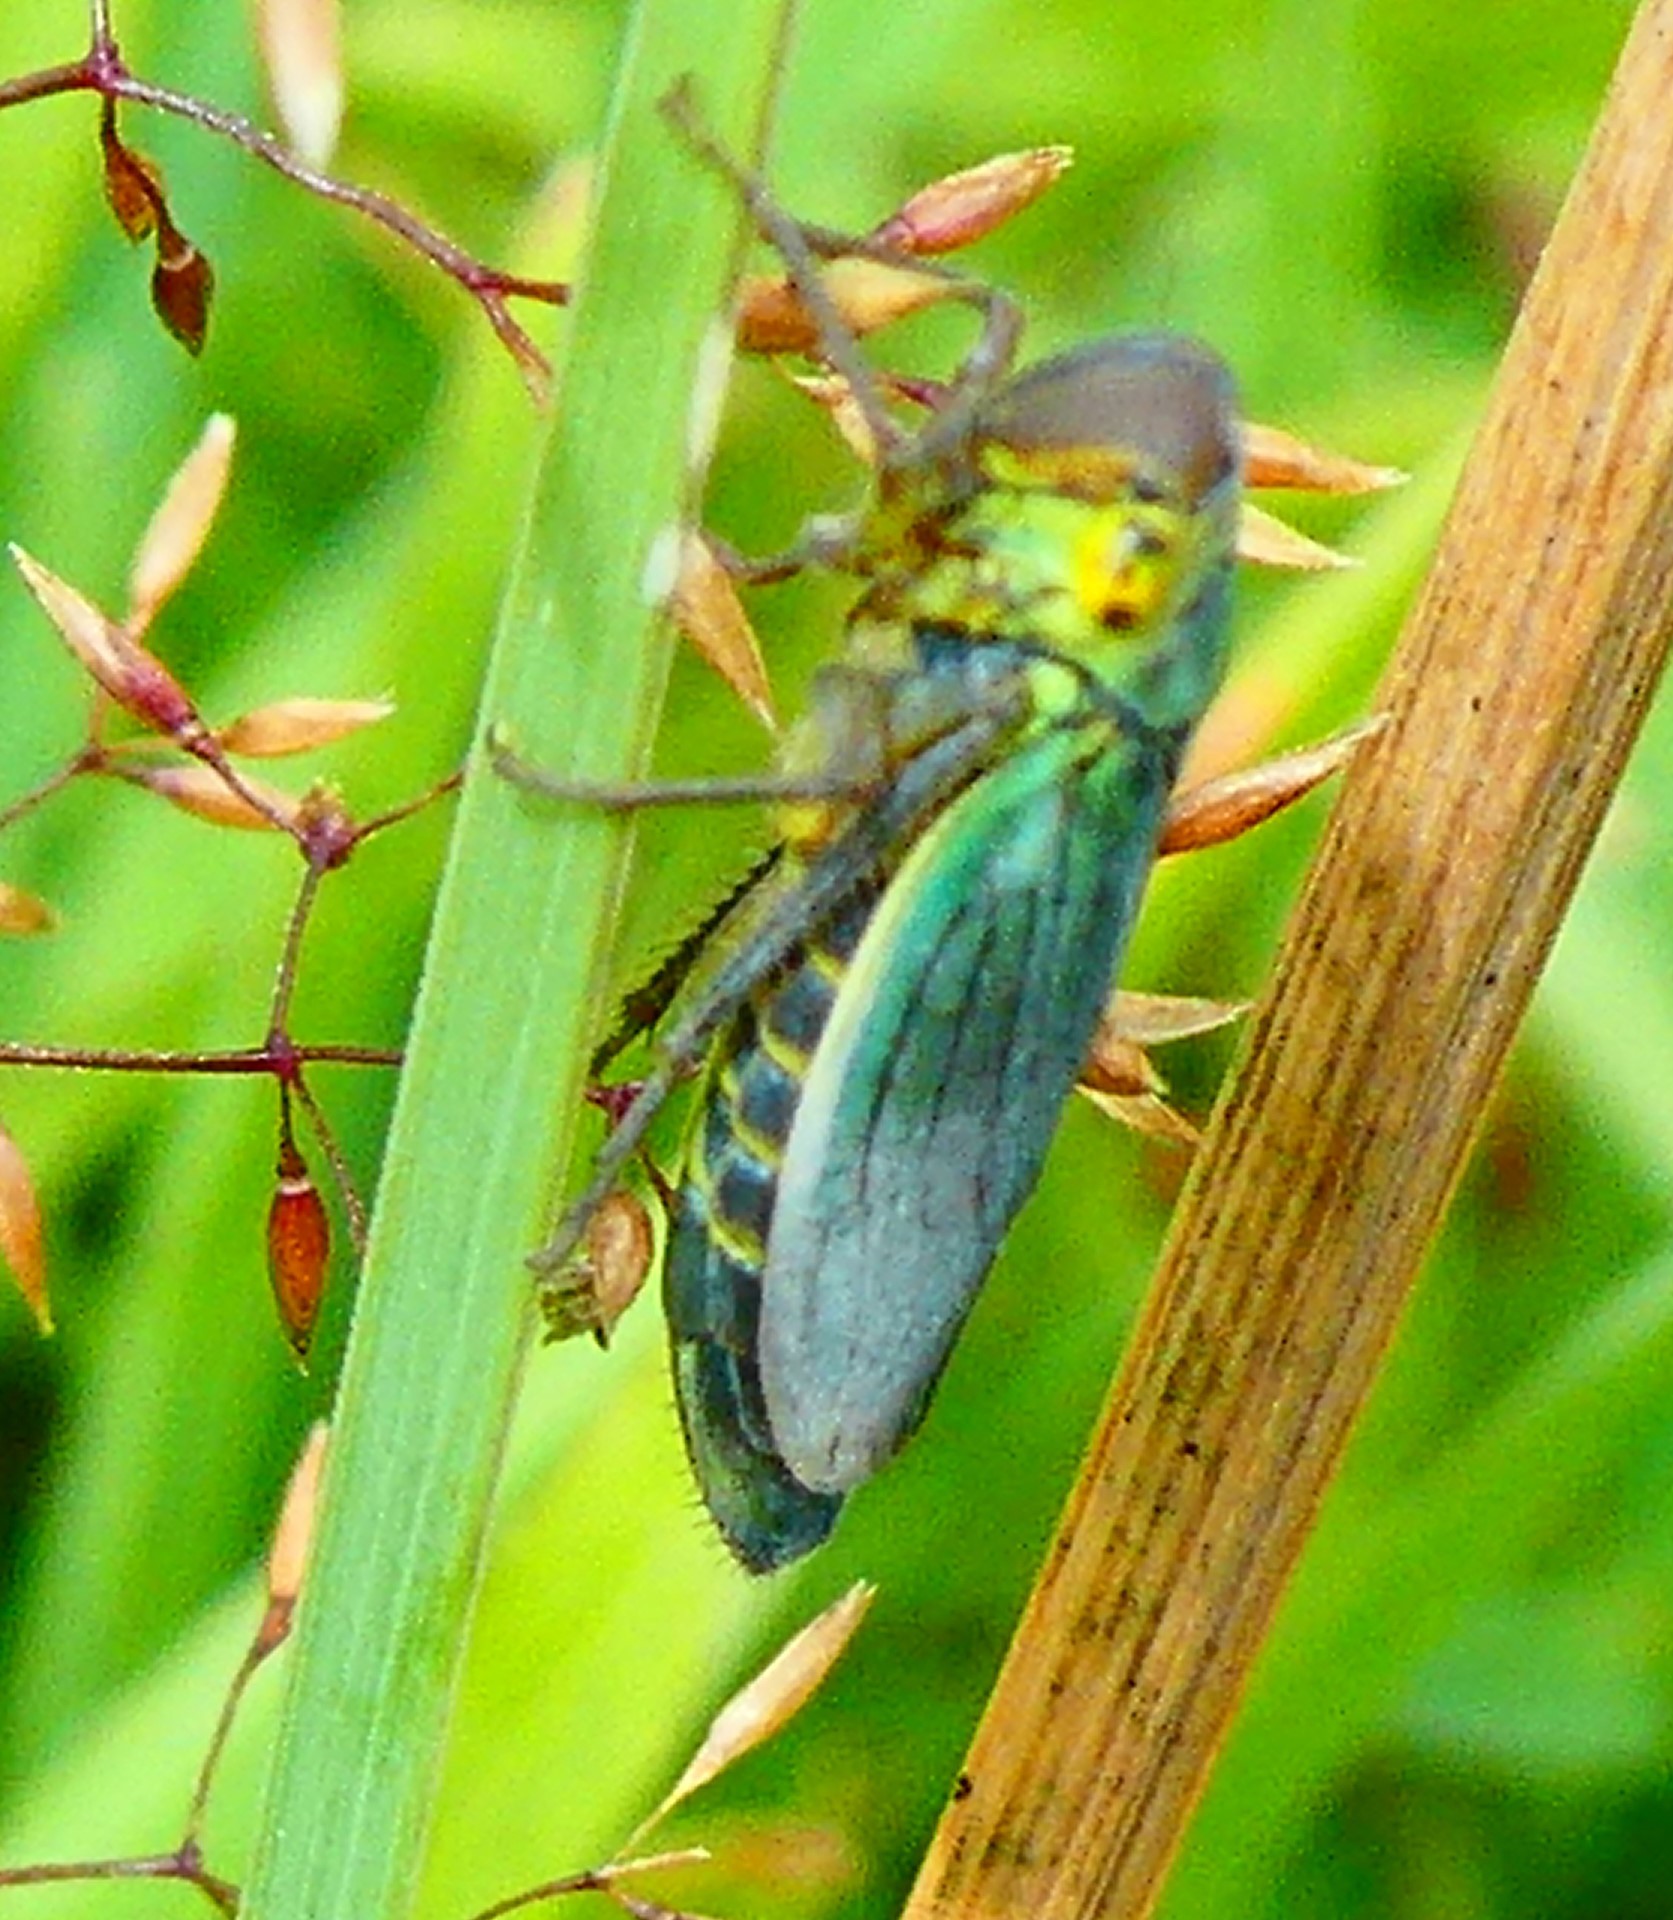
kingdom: Animalia
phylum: Arthropoda
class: Insecta
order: Hemiptera
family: Cicadellidae
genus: Cicadella
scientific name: Cicadella viridis
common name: Leafhopper
